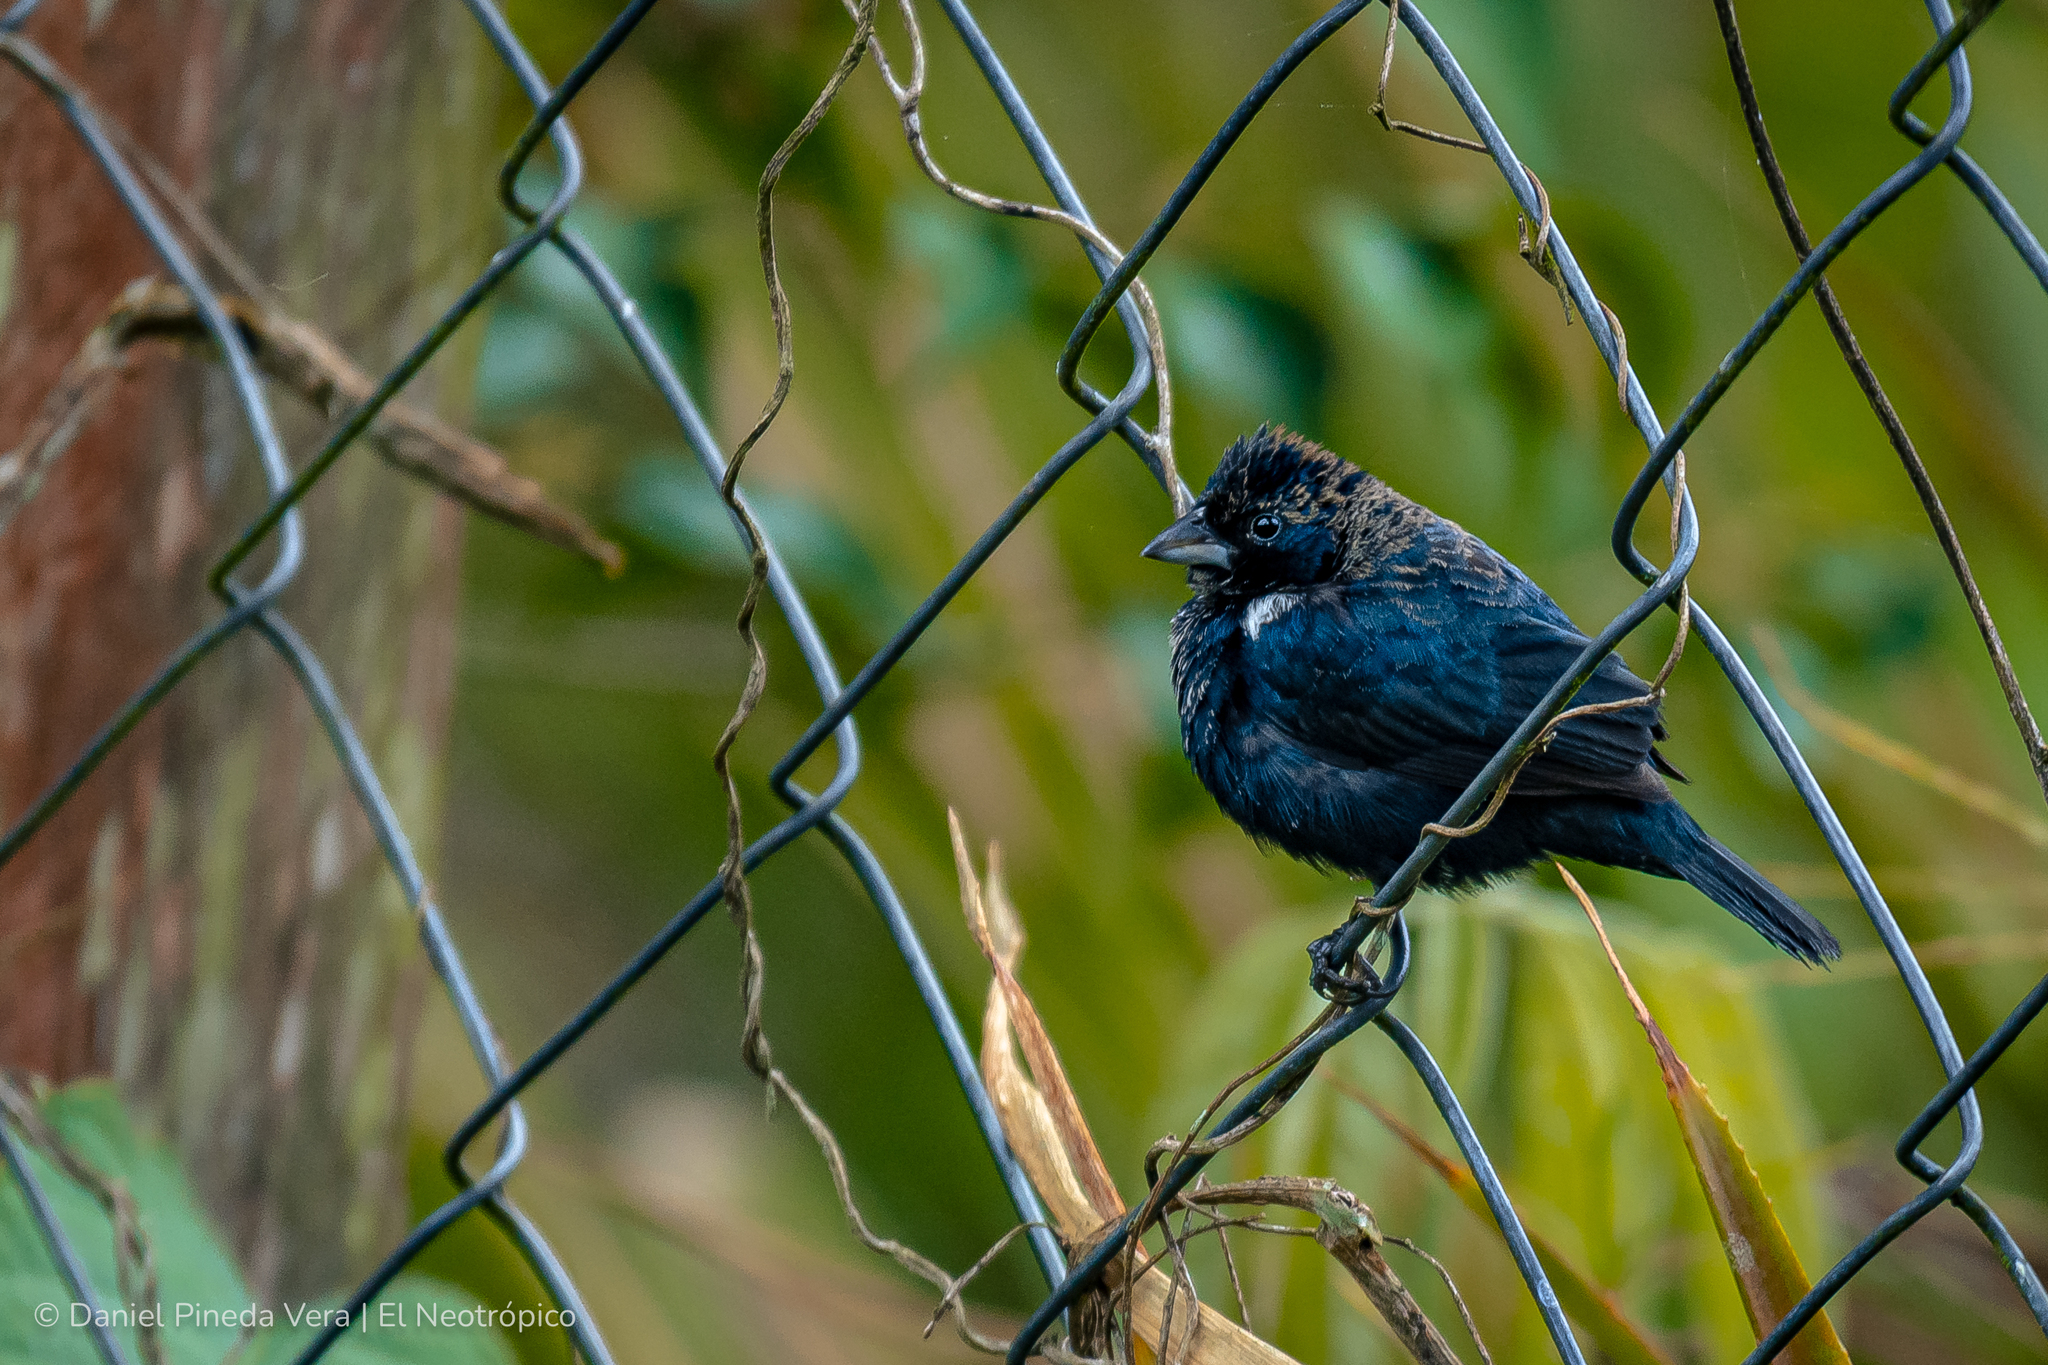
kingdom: Animalia
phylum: Chordata
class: Aves
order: Passeriformes
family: Thraupidae
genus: Volatinia
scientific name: Volatinia jacarina
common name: Blue-black grassquit
